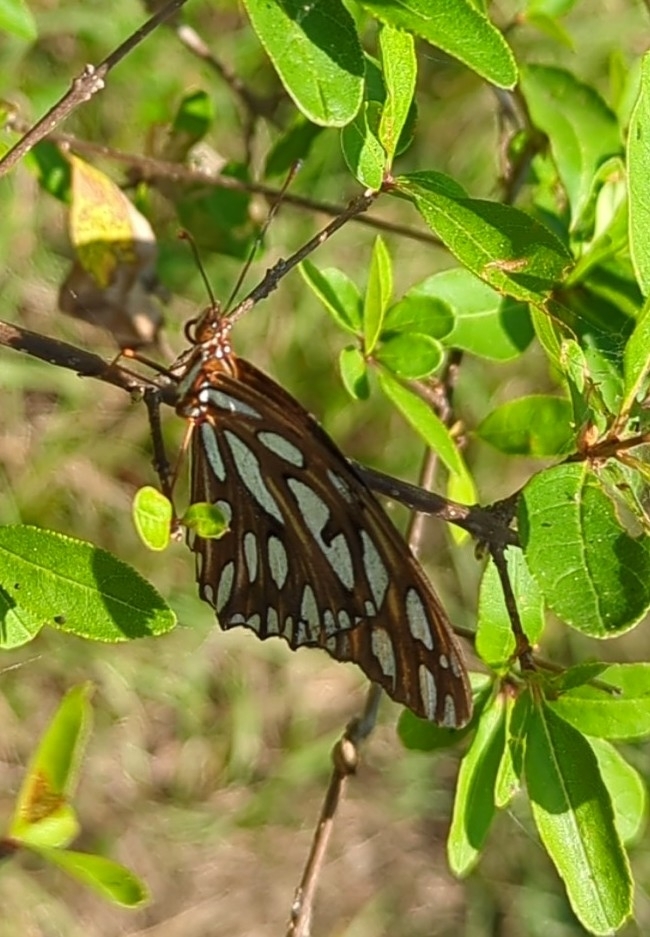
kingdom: Animalia
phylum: Arthropoda
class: Insecta
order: Lepidoptera
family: Nymphalidae
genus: Dione
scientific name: Dione vanillae
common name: Gulf fritillary
